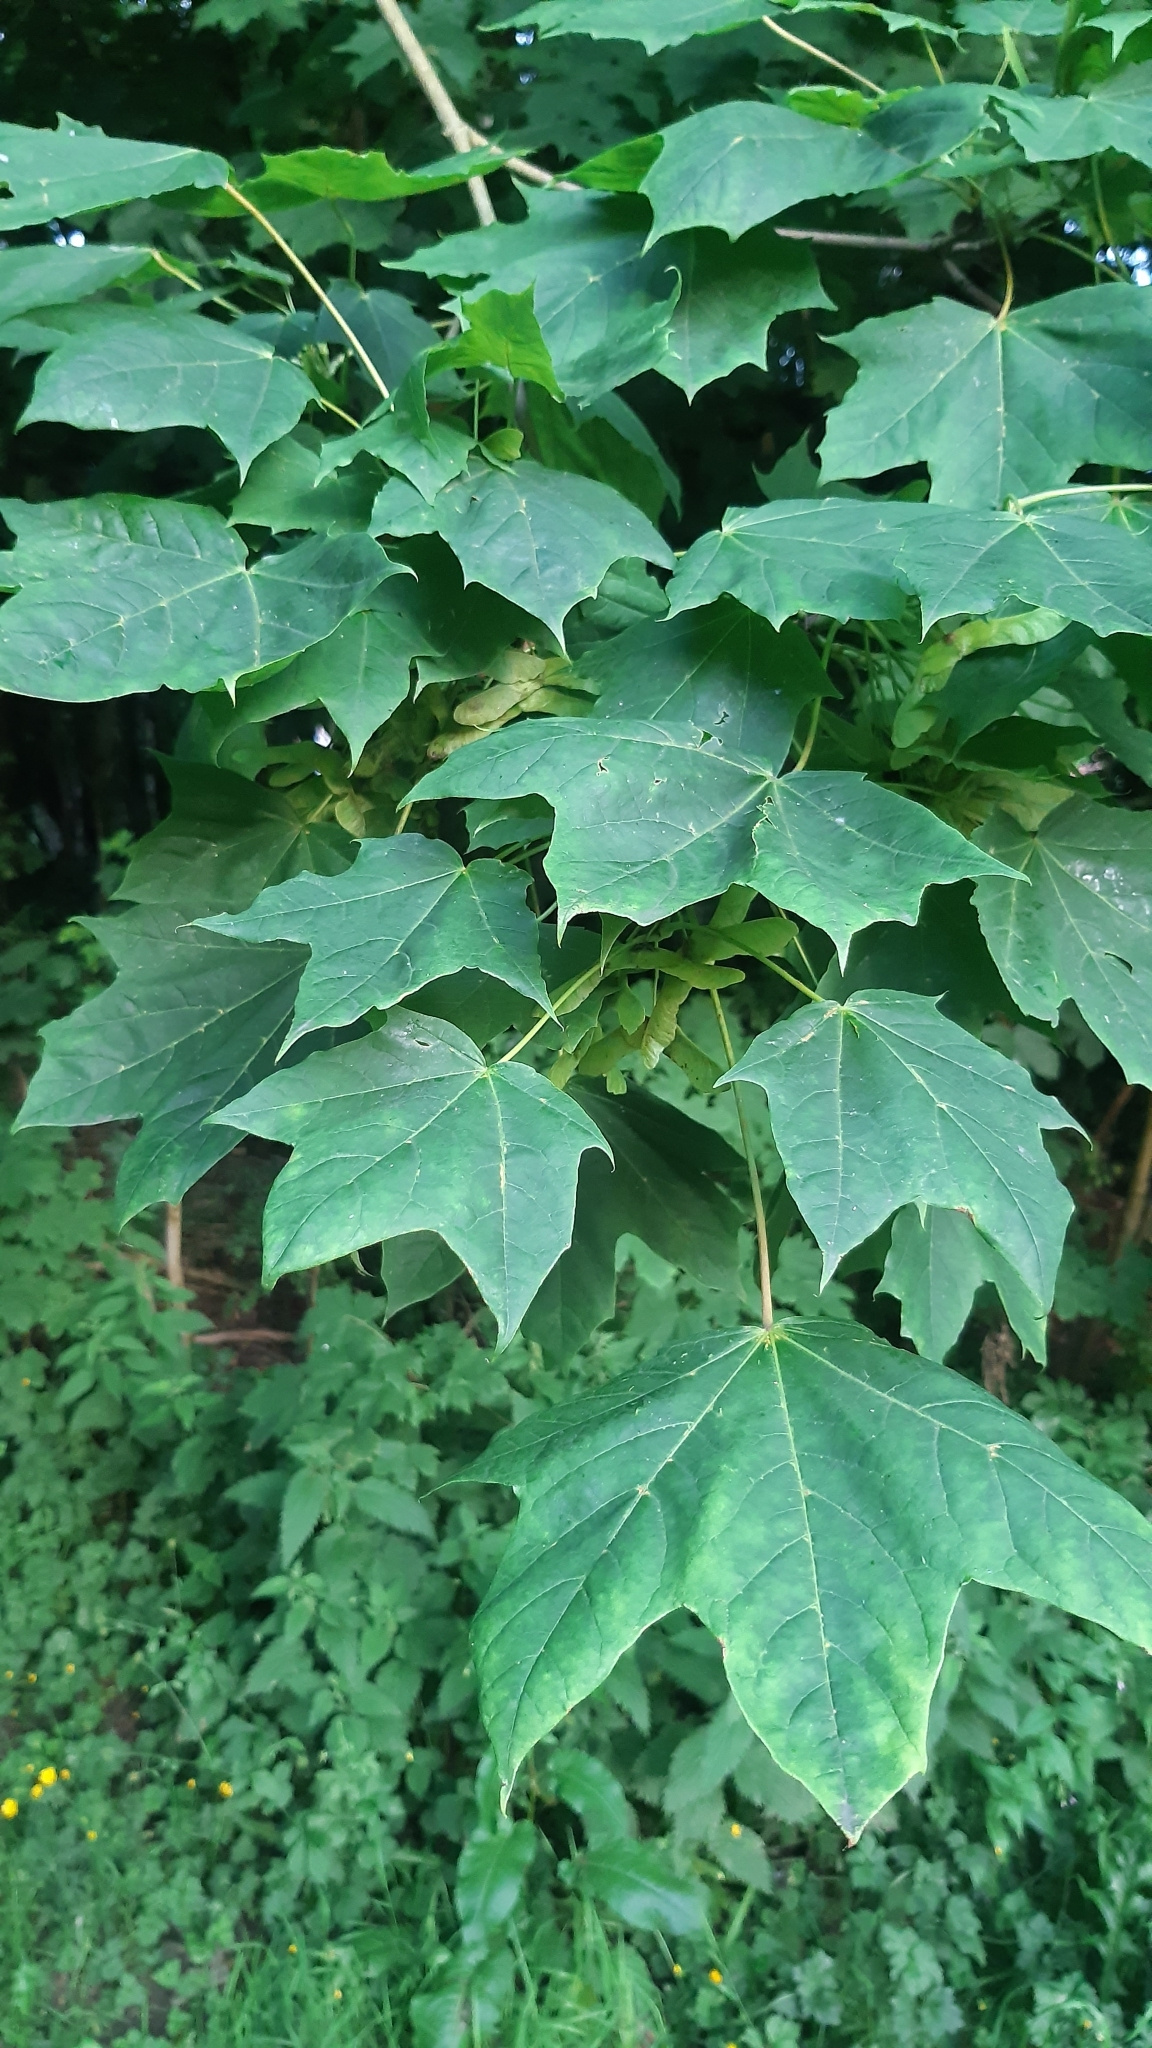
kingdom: Plantae
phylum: Tracheophyta
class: Magnoliopsida
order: Sapindales
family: Sapindaceae
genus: Acer
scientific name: Acer platanoides
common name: Norway maple
